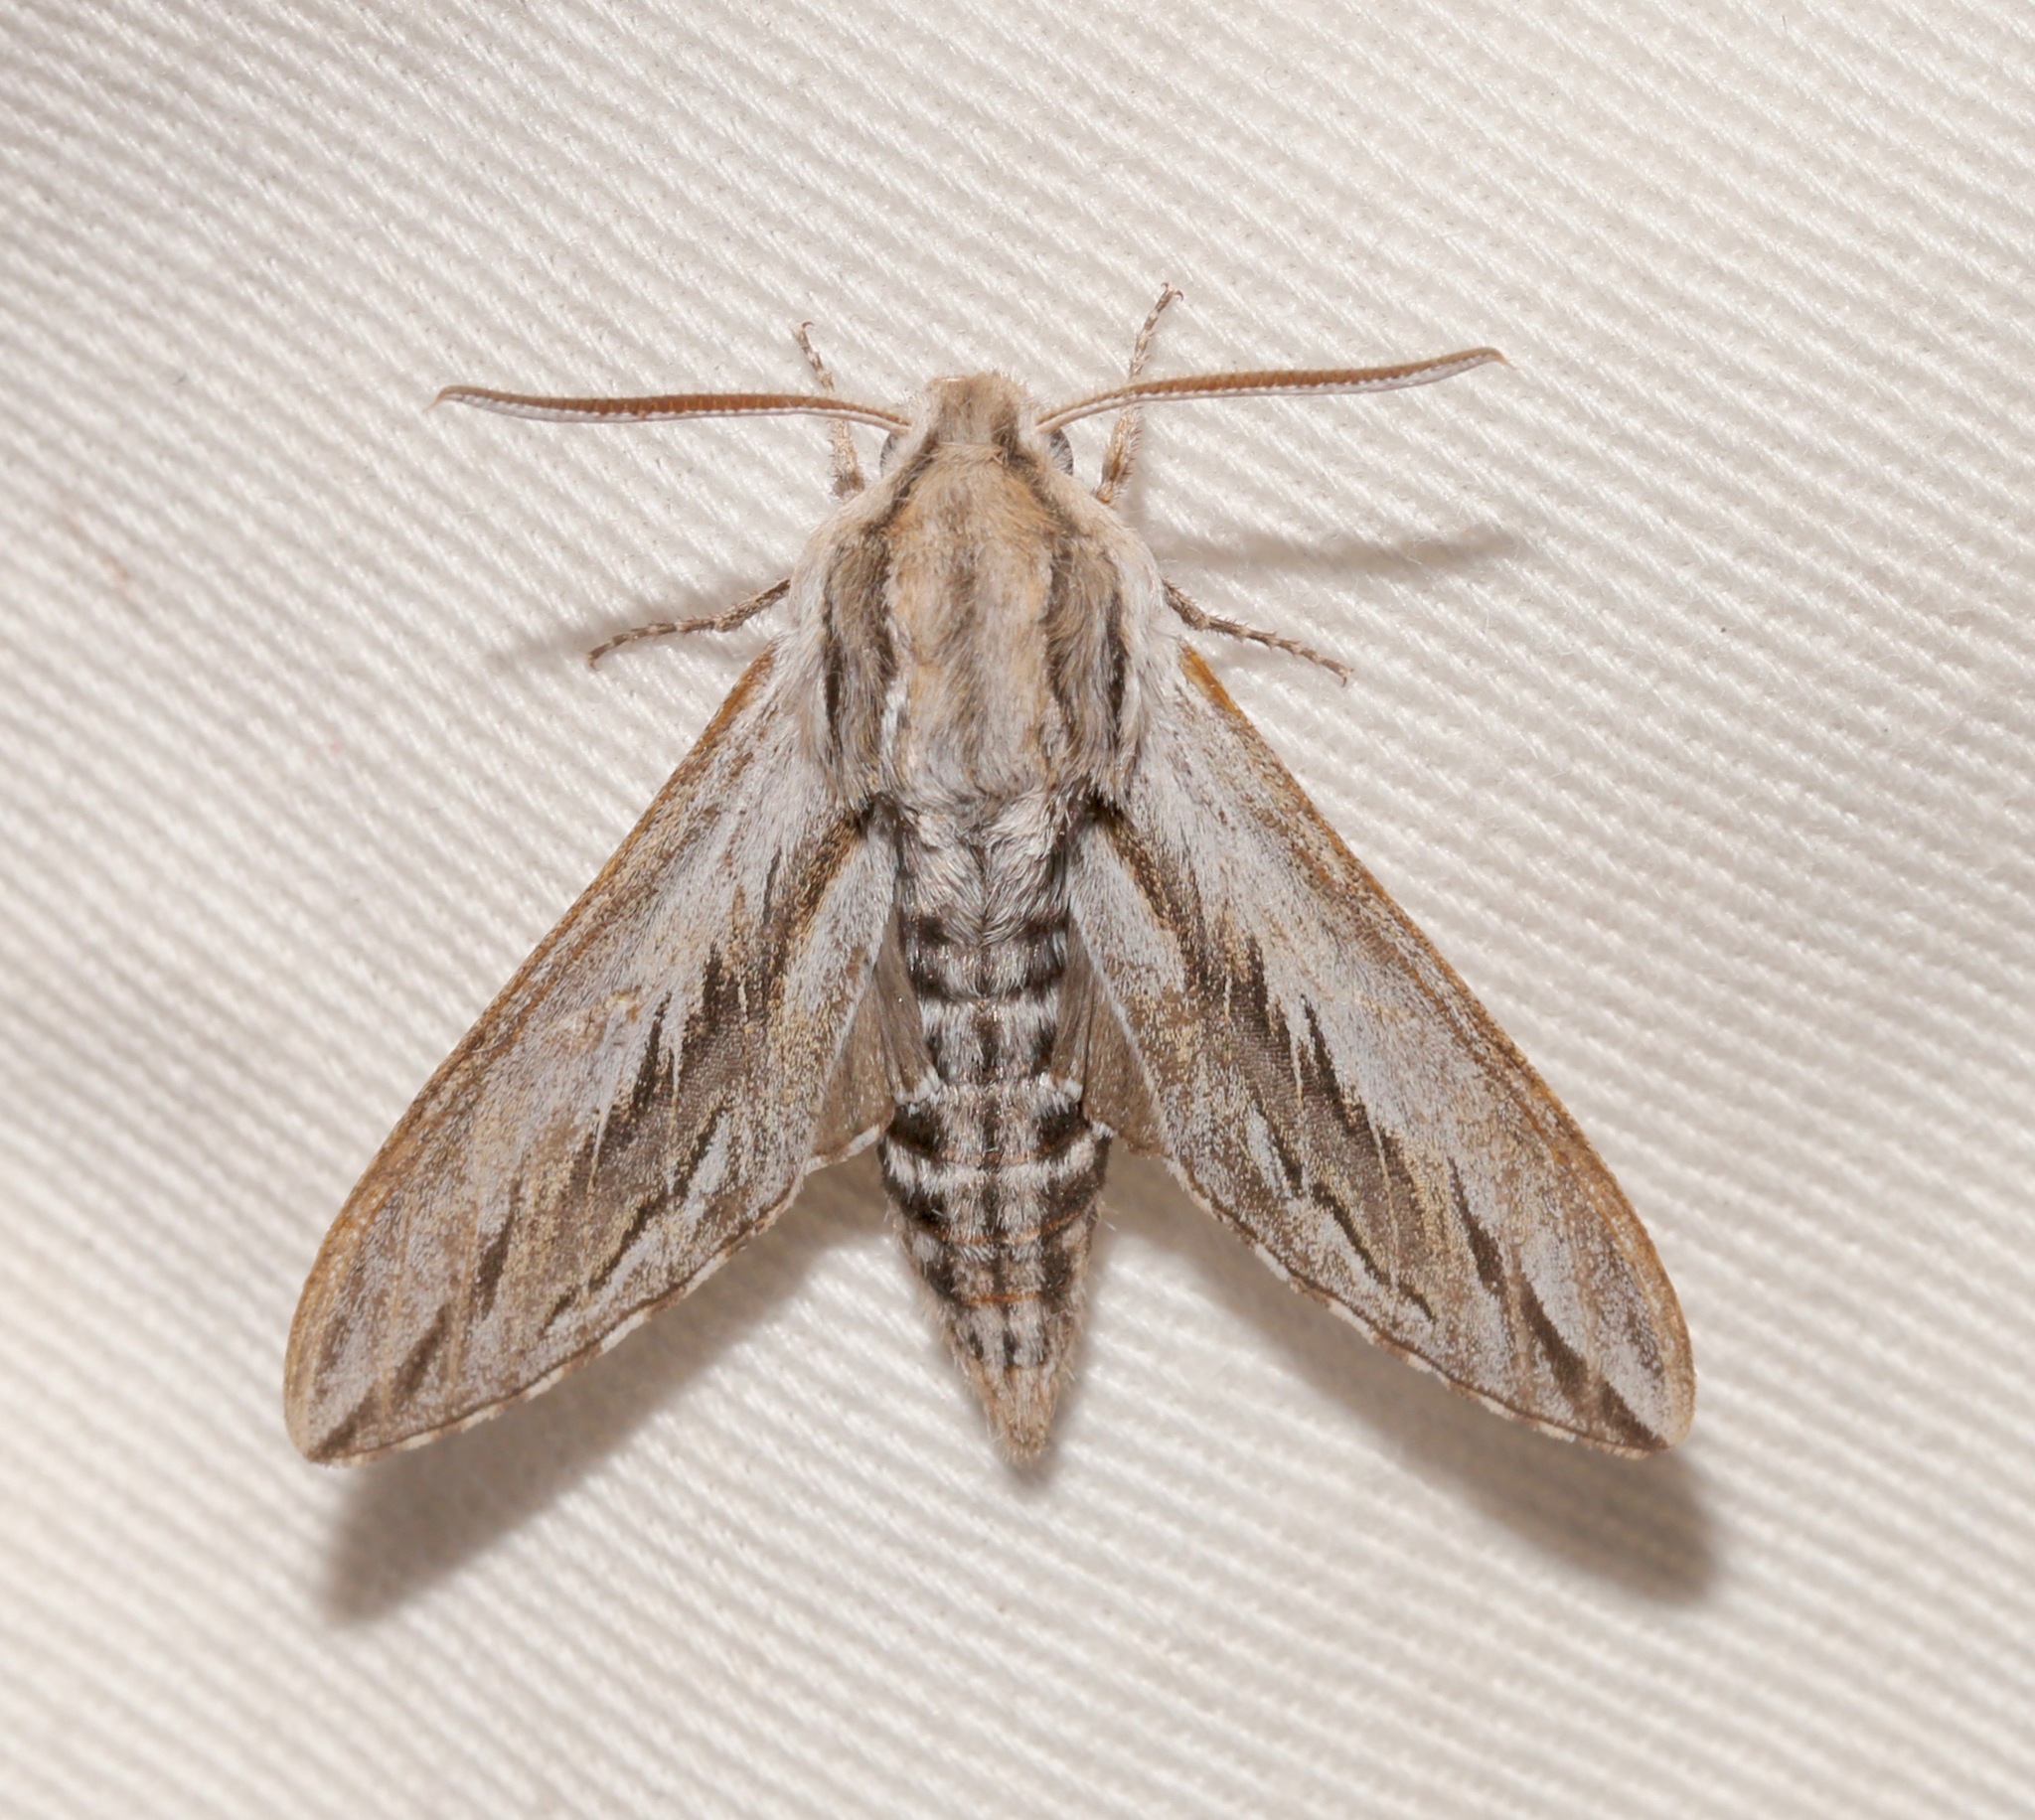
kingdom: Animalia
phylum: Arthropoda
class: Insecta
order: Lepidoptera
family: Sphingidae
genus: Sphinx
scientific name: Sphinx vanbuskirki
